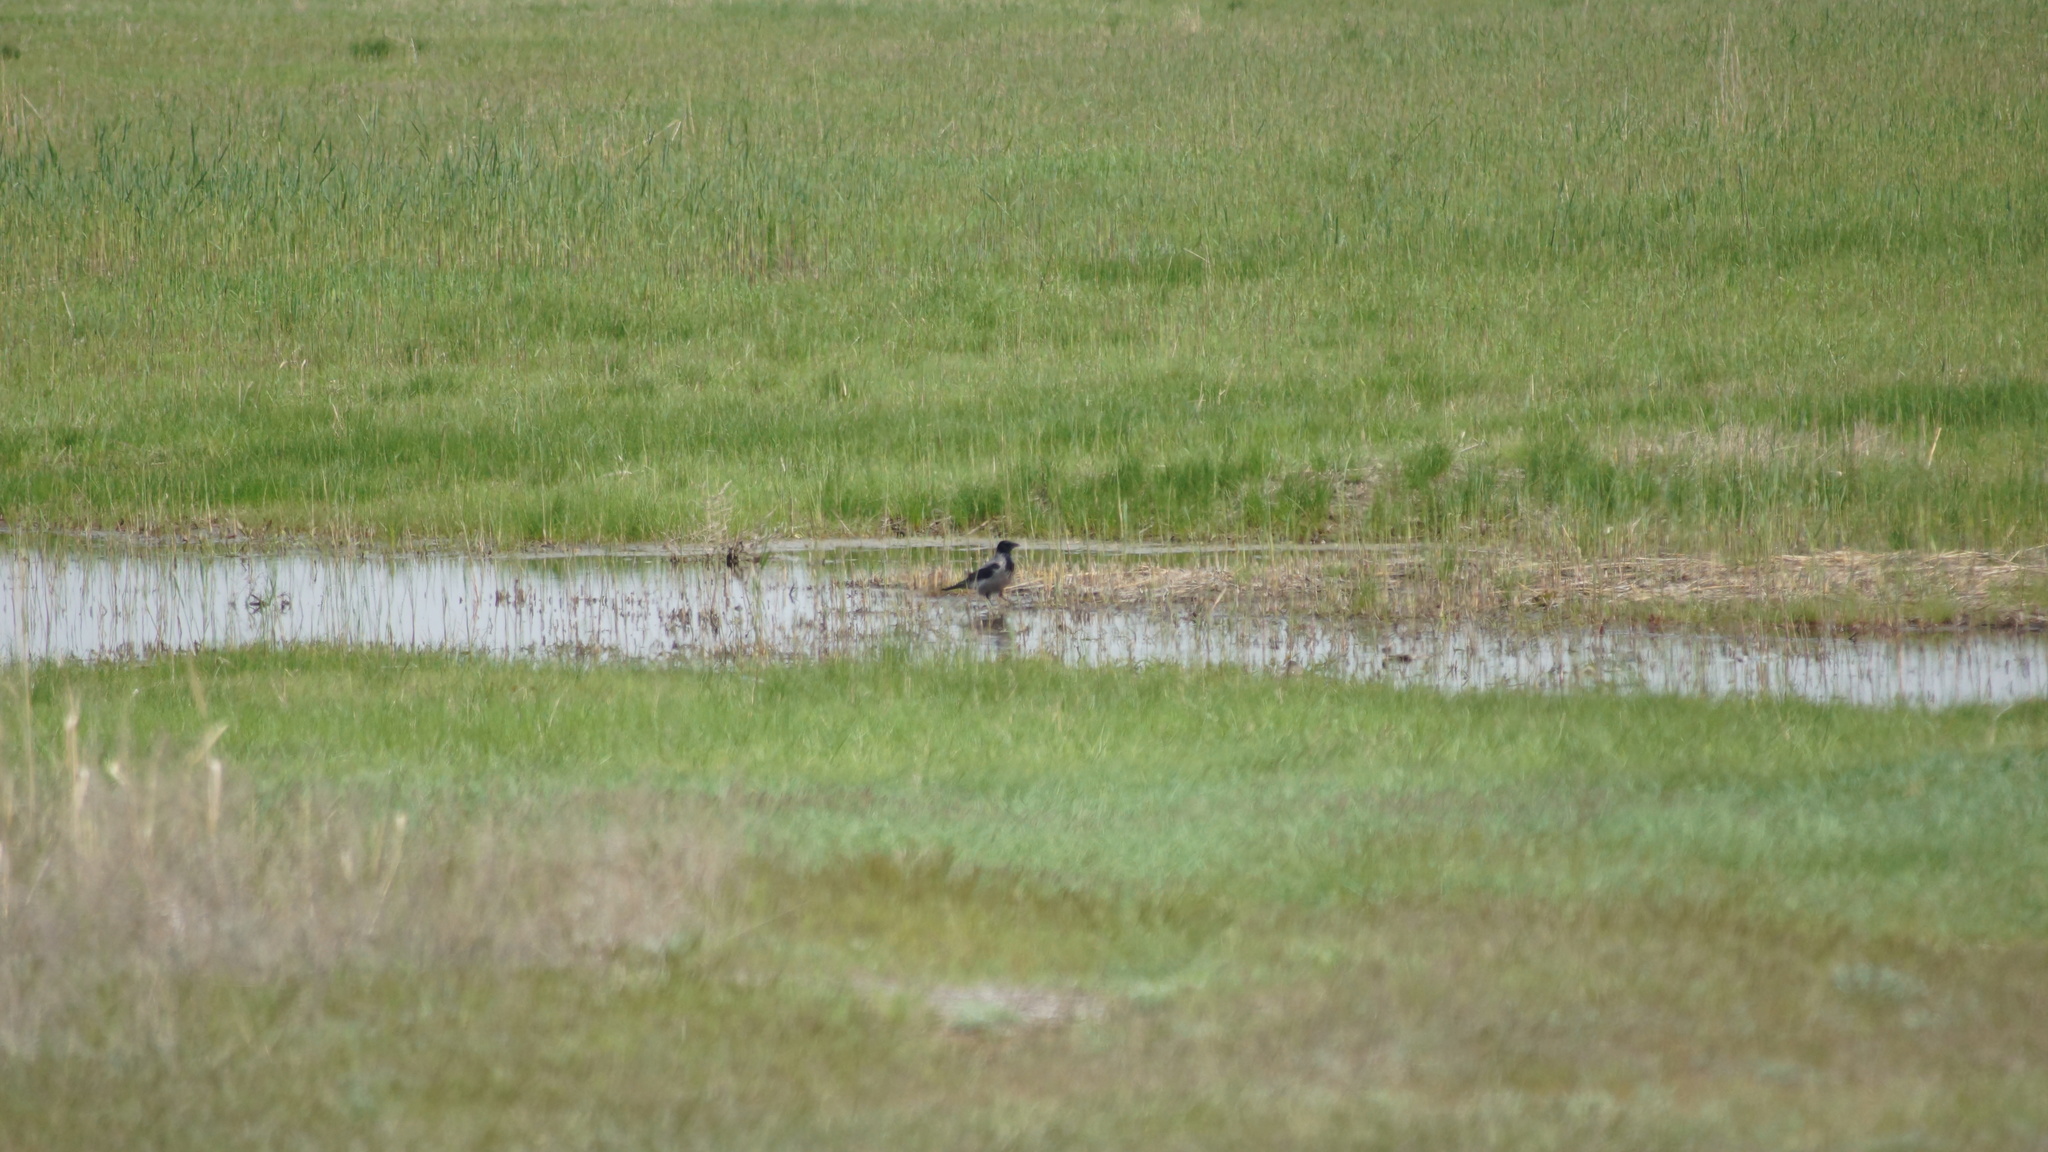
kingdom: Animalia
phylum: Chordata
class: Aves
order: Passeriformes
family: Corvidae
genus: Corvus
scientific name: Corvus cornix
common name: Hooded crow
